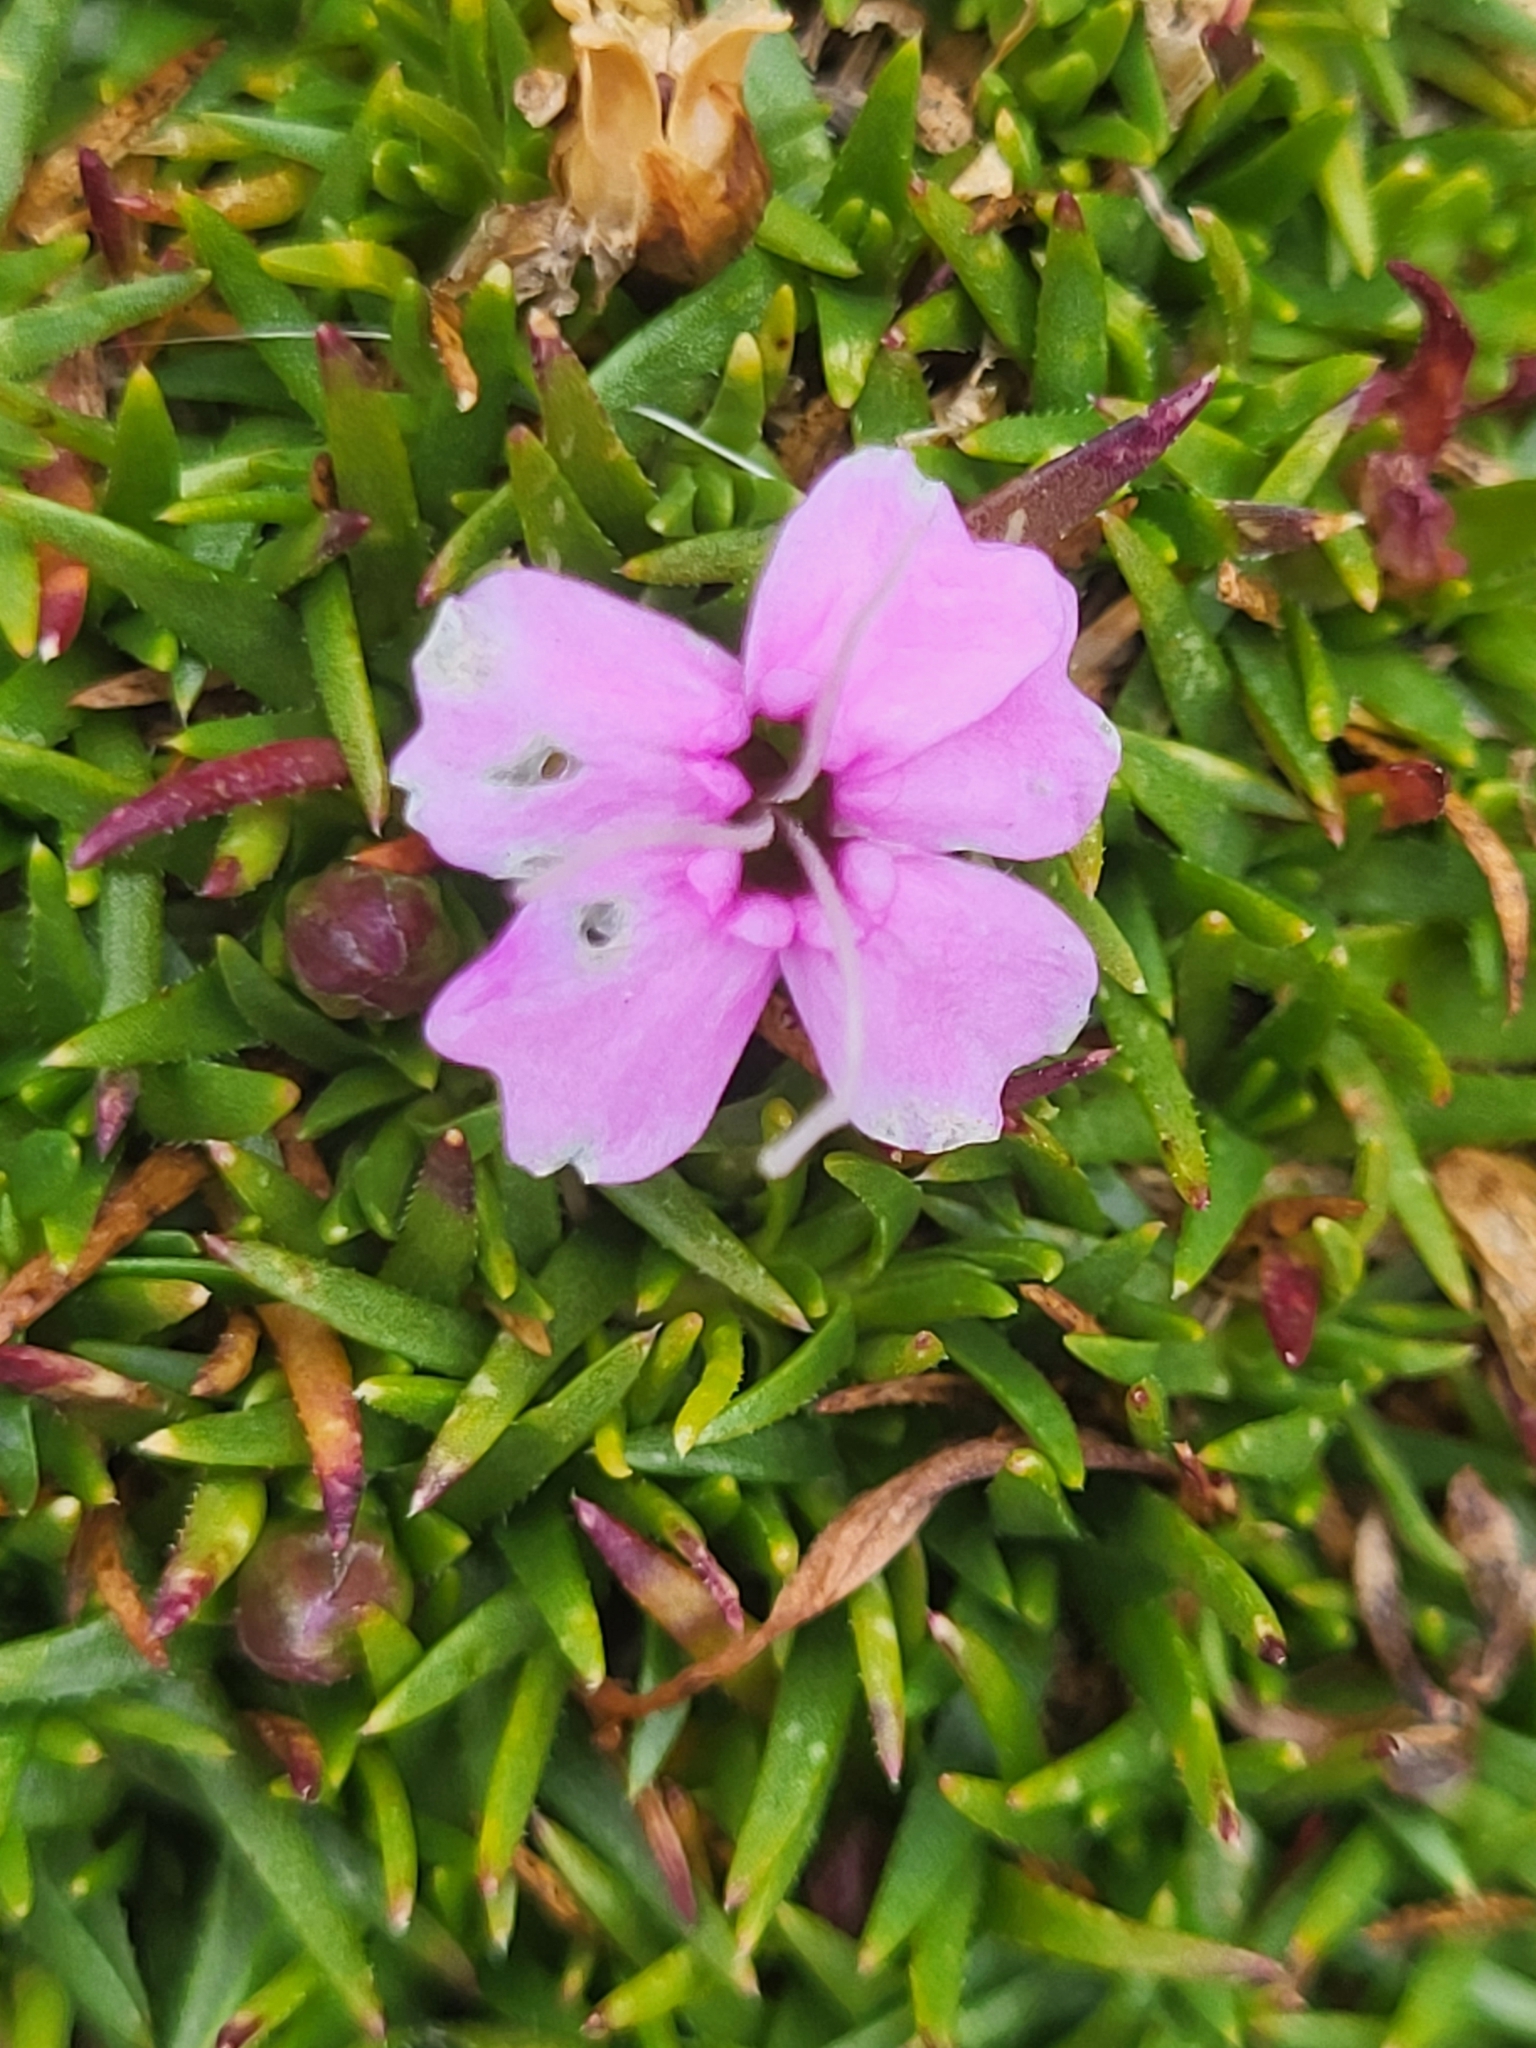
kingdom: Plantae
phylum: Tracheophyta
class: Magnoliopsida
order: Caryophyllales
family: Caryophyllaceae
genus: Silene
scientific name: Silene acaulis
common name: Moss campion
